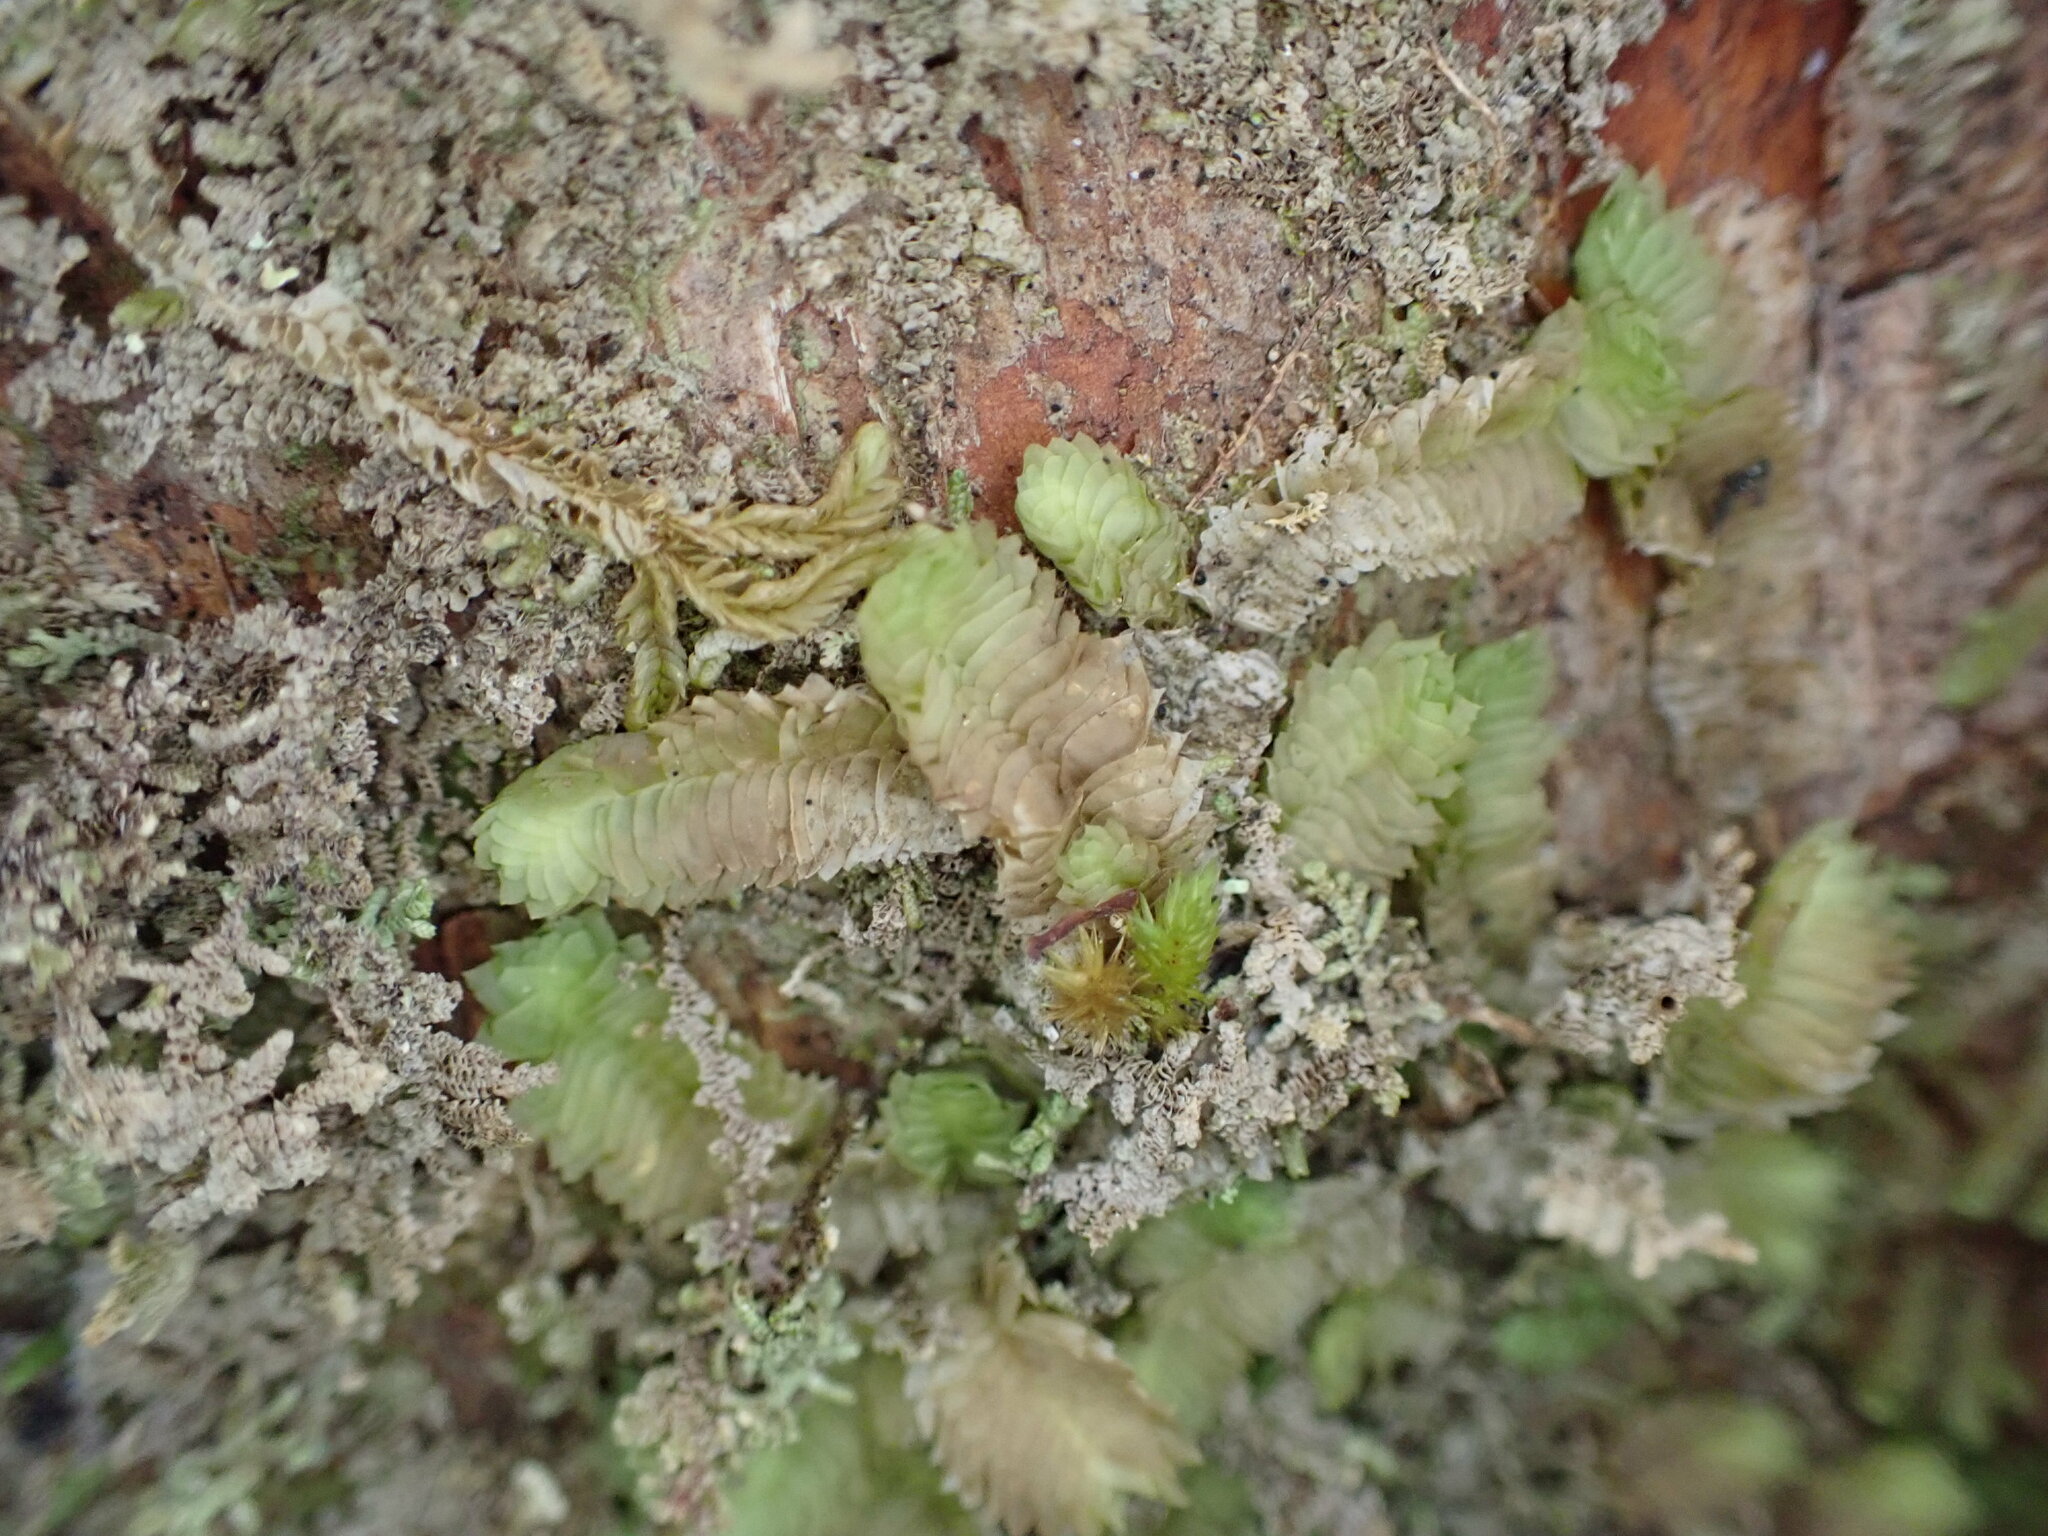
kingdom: Plantae
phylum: Marchantiophyta
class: Jungermanniopsida
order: Jungermanniales
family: Schistochilaceae
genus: Schistochila
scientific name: Schistochila tuloides
